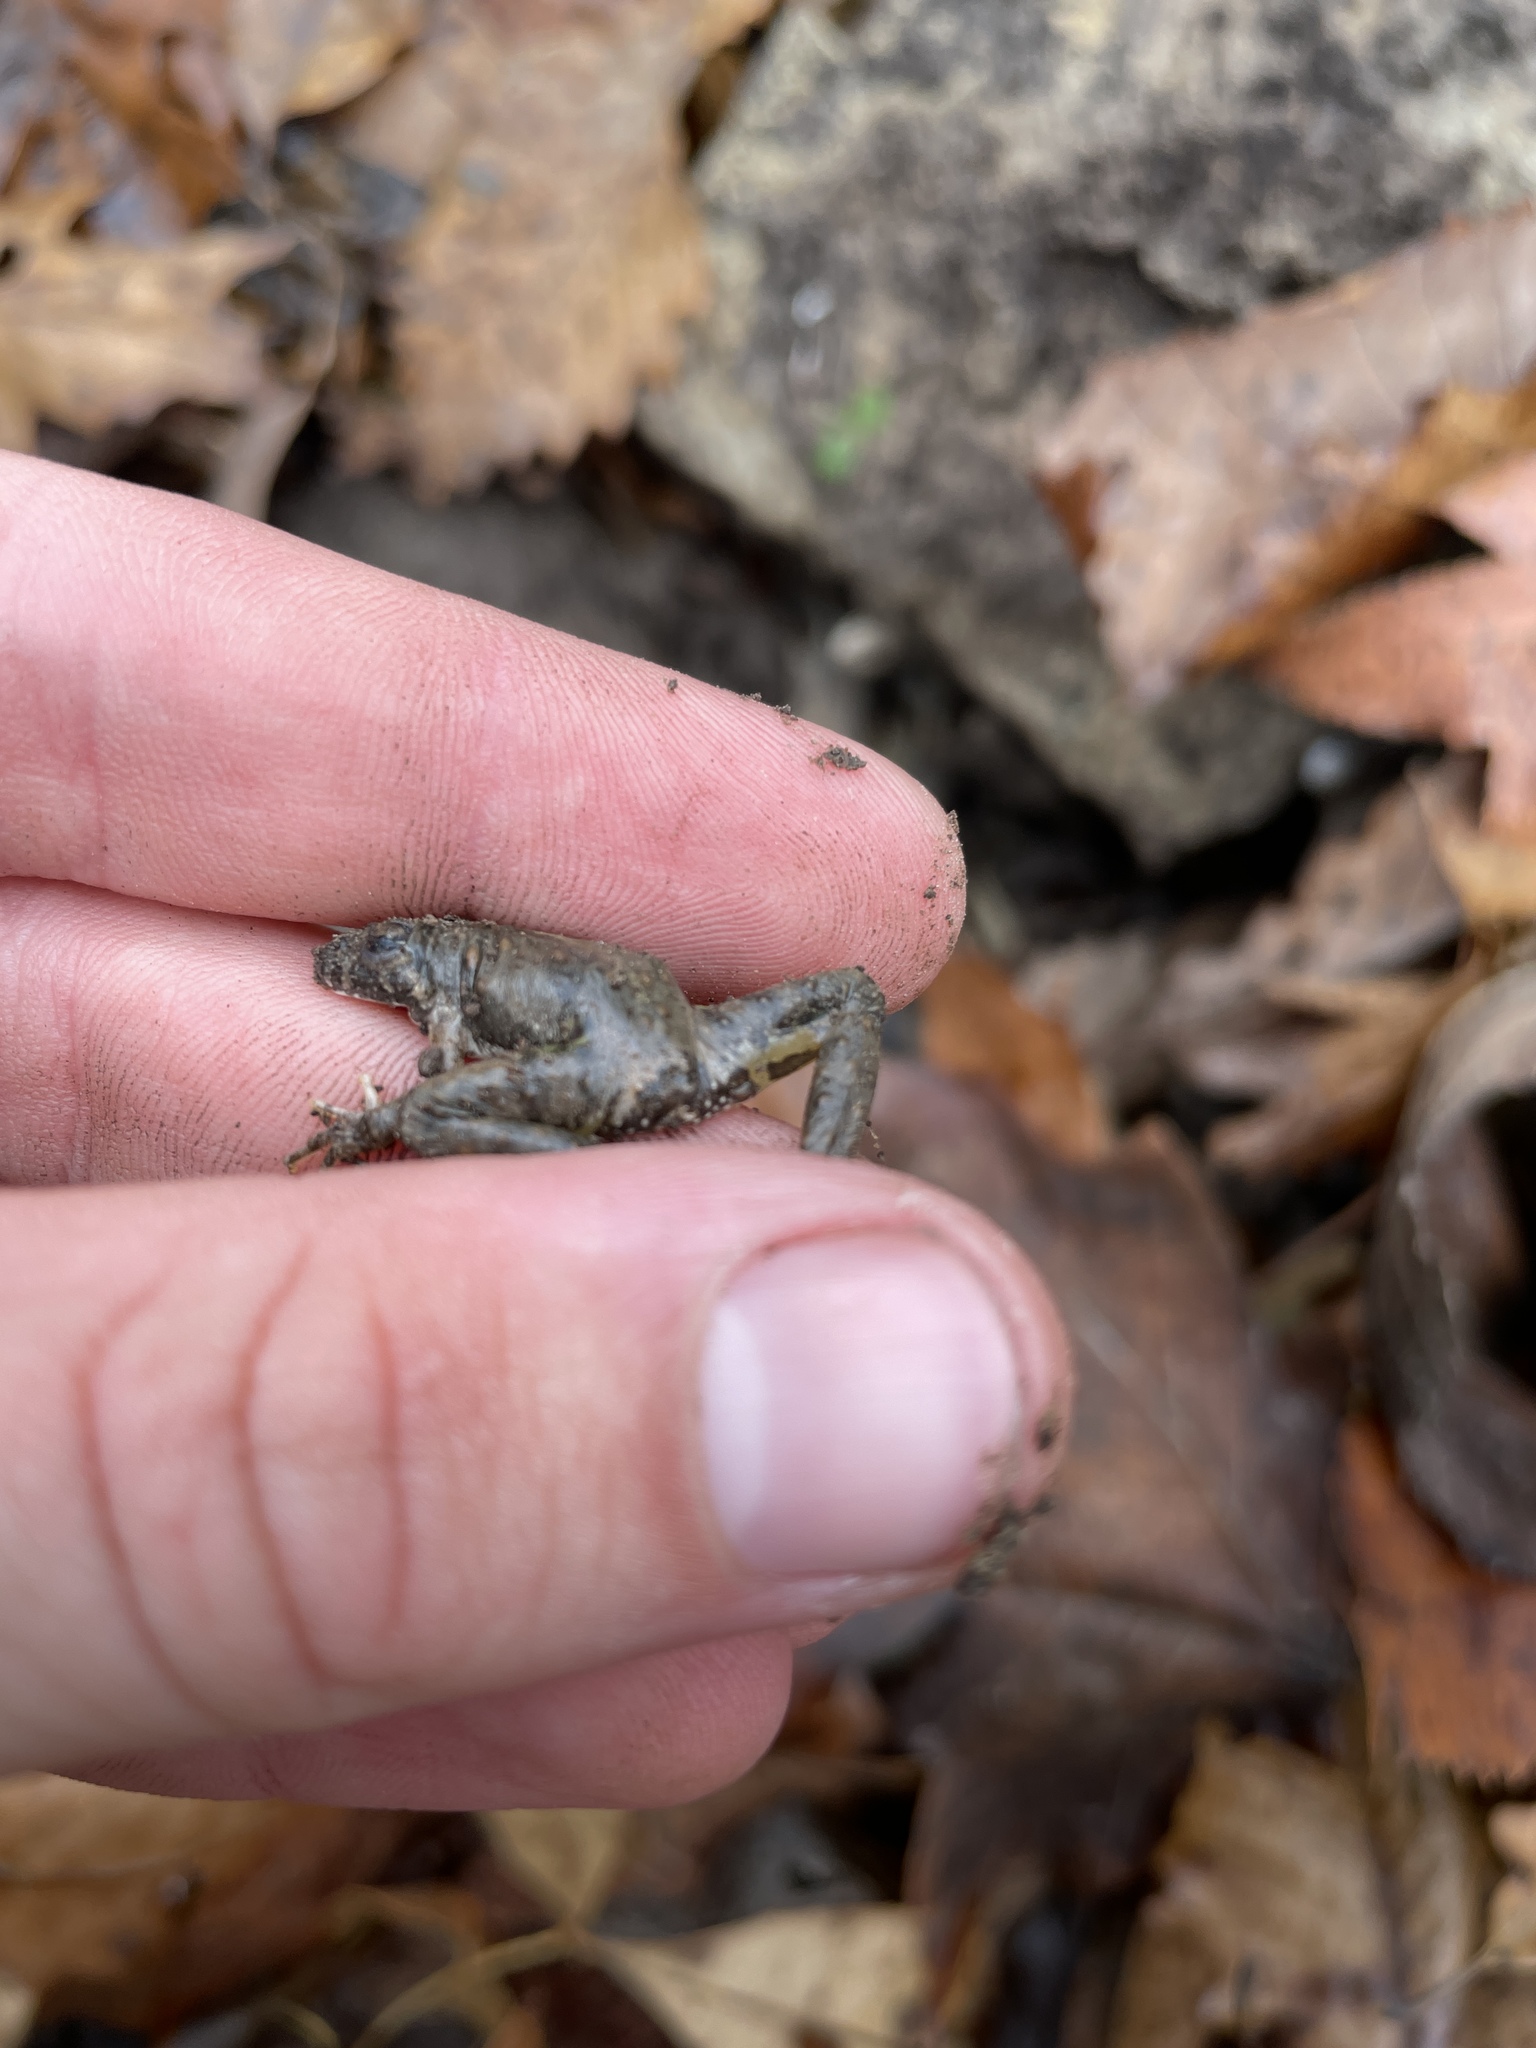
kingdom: Animalia
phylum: Chordata
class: Amphibia
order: Anura
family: Hylidae
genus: Acris
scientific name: Acris blanchardi
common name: Blanchard's cricket frog
